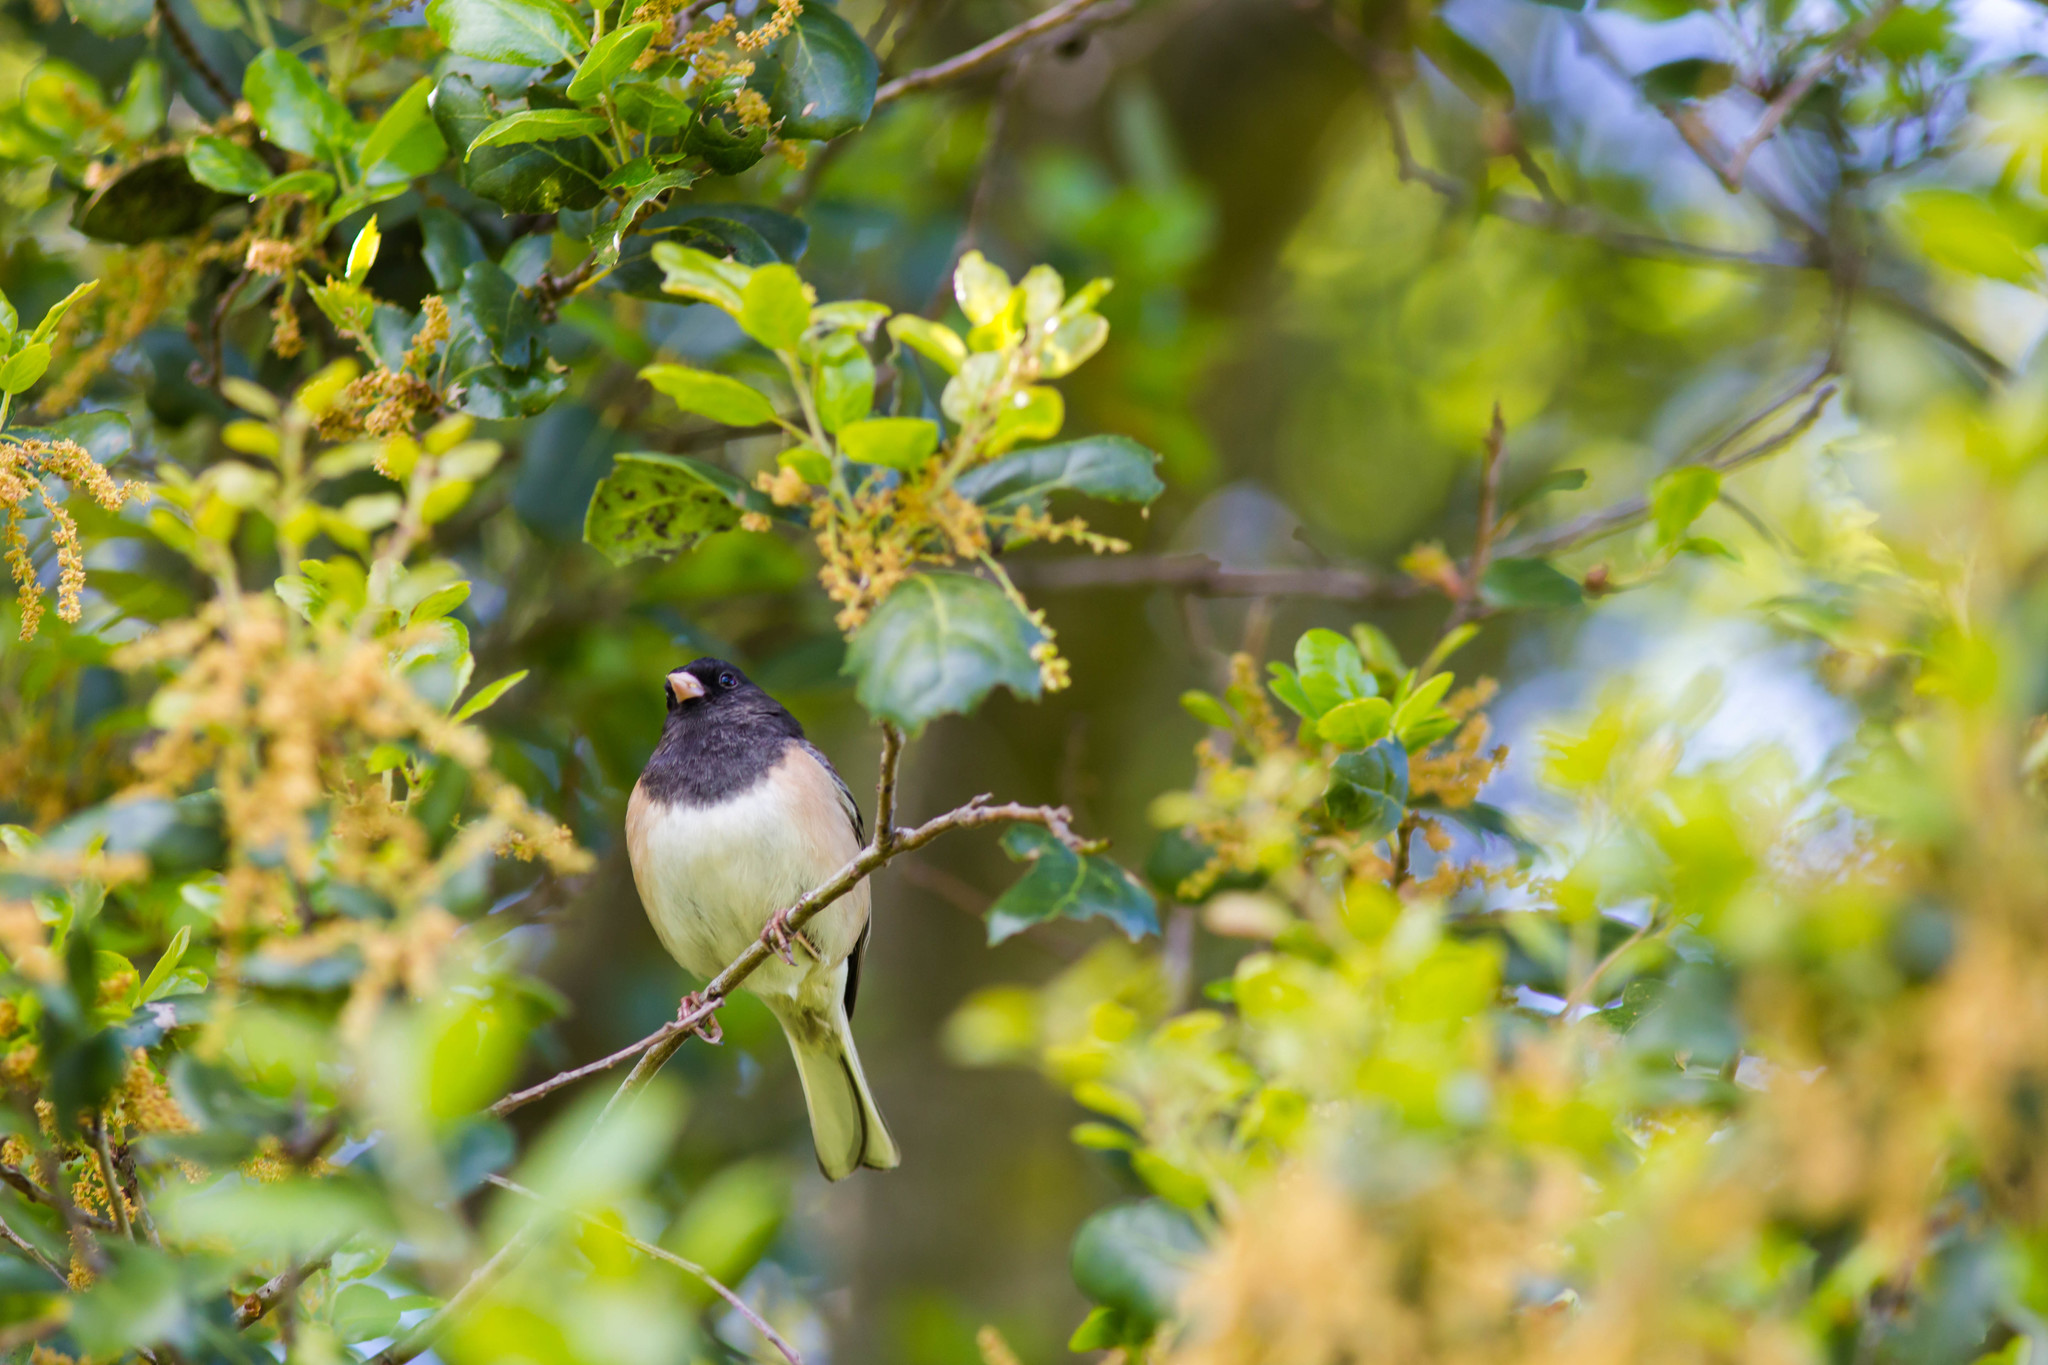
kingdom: Animalia
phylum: Chordata
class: Aves
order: Passeriformes
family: Passerellidae
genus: Junco
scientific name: Junco hyemalis
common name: Dark-eyed junco
